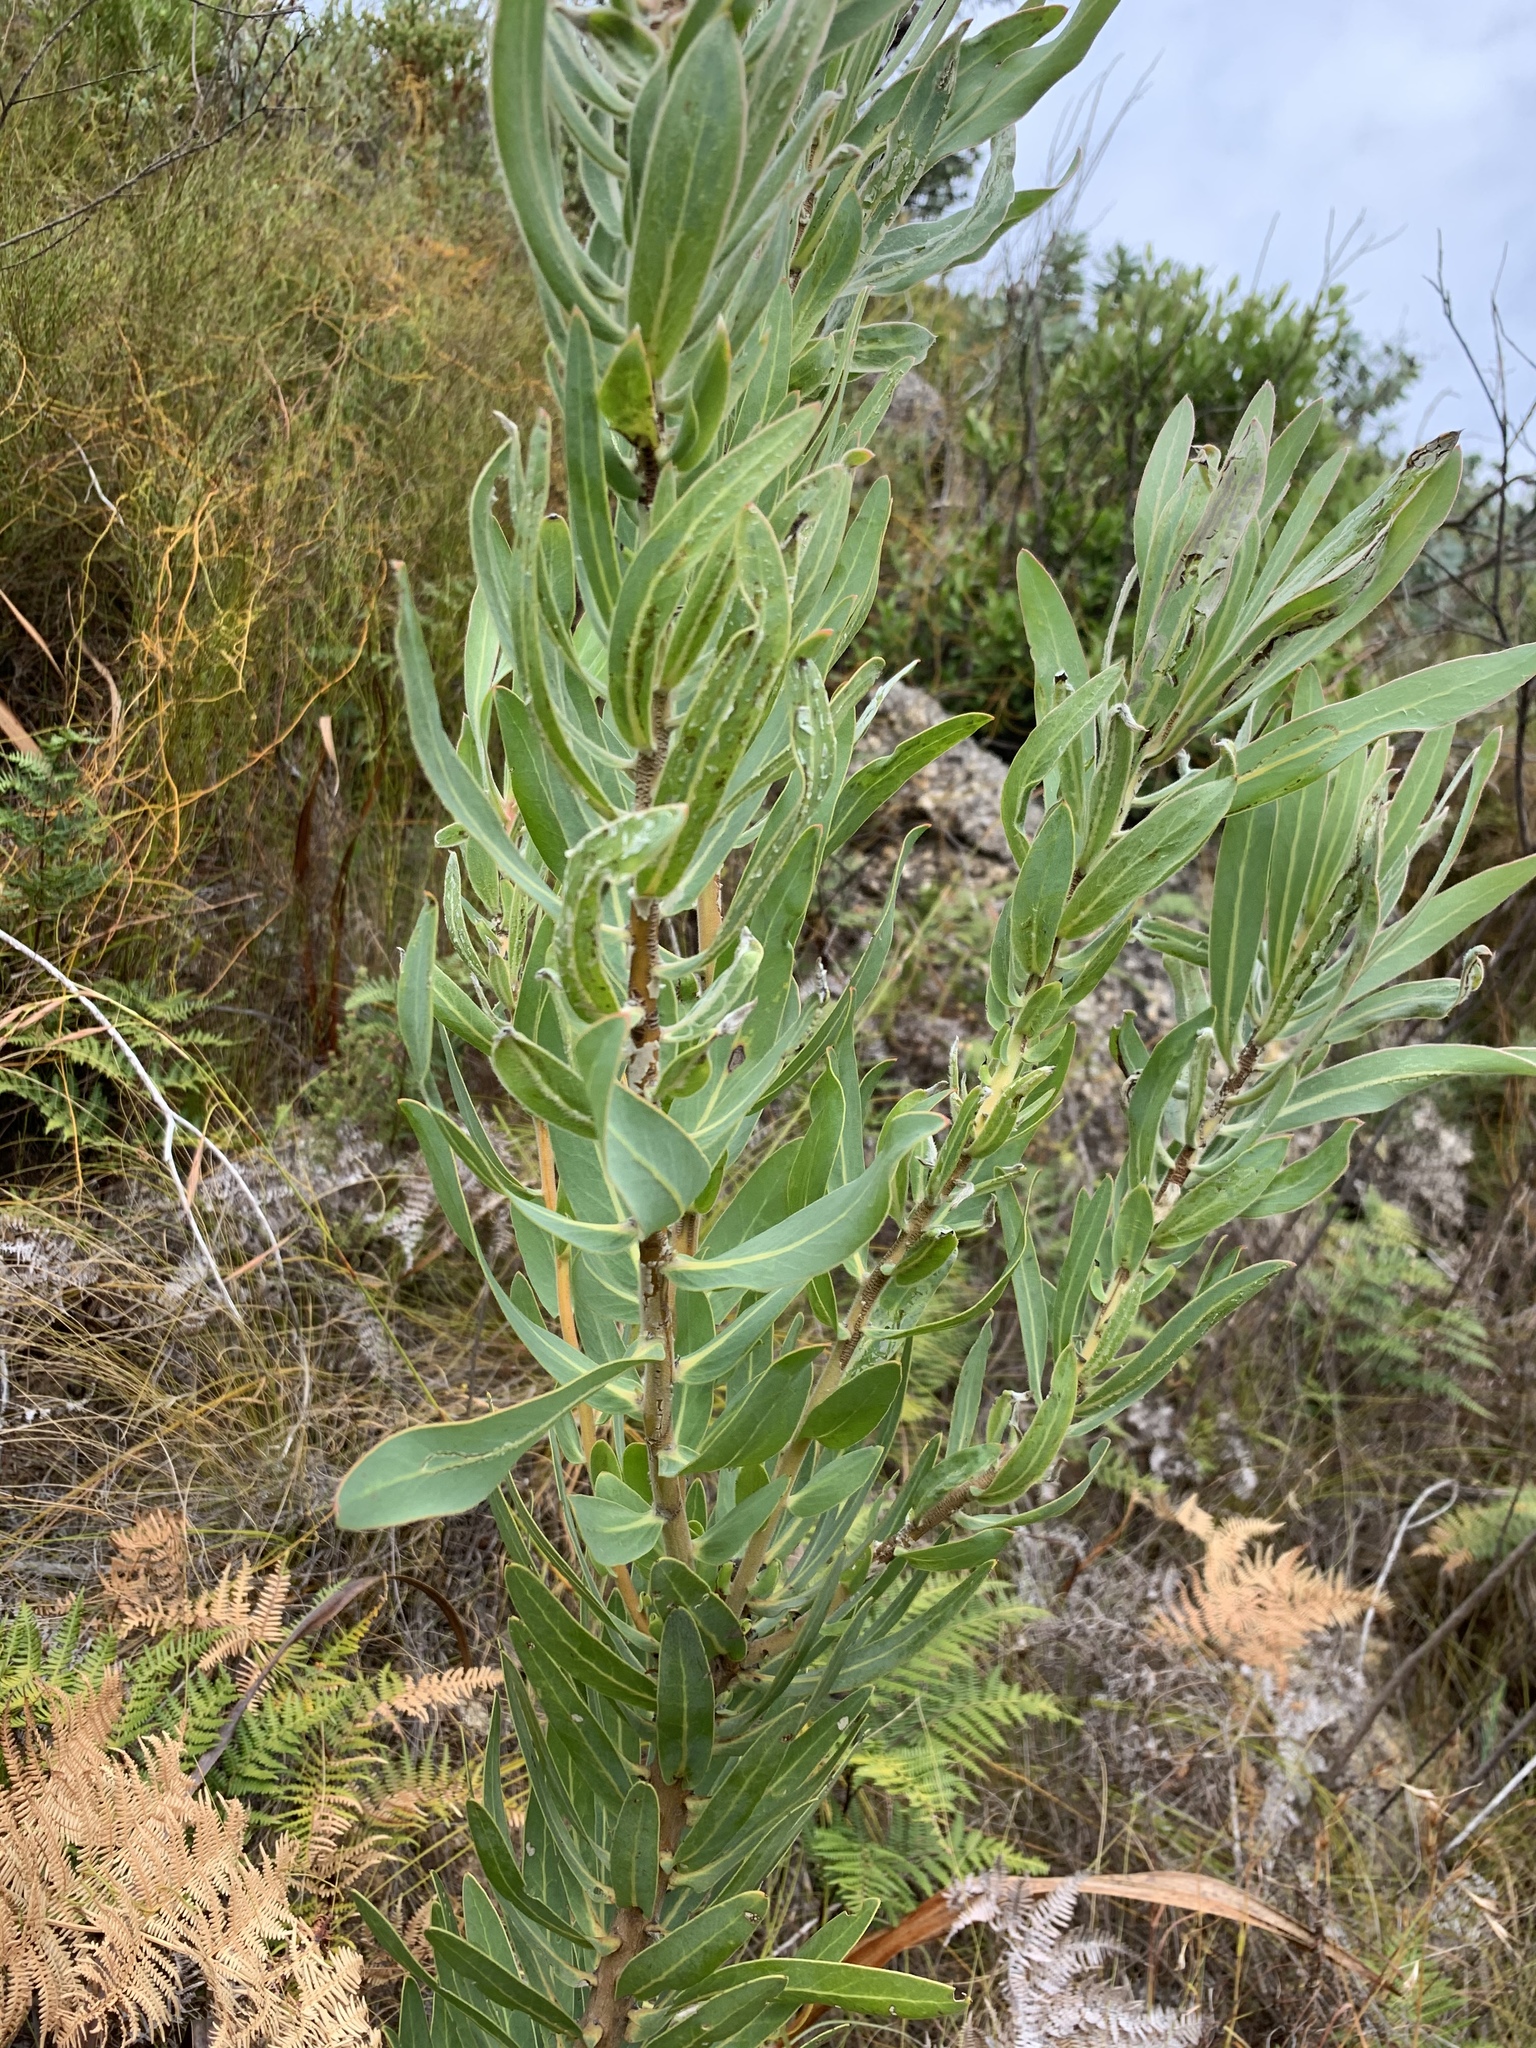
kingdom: Plantae
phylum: Tracheophyta
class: Magnoliopsida
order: Proteales
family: Proteaceae
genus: Protea
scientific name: Protea neriifolia
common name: Blue sugarbush
